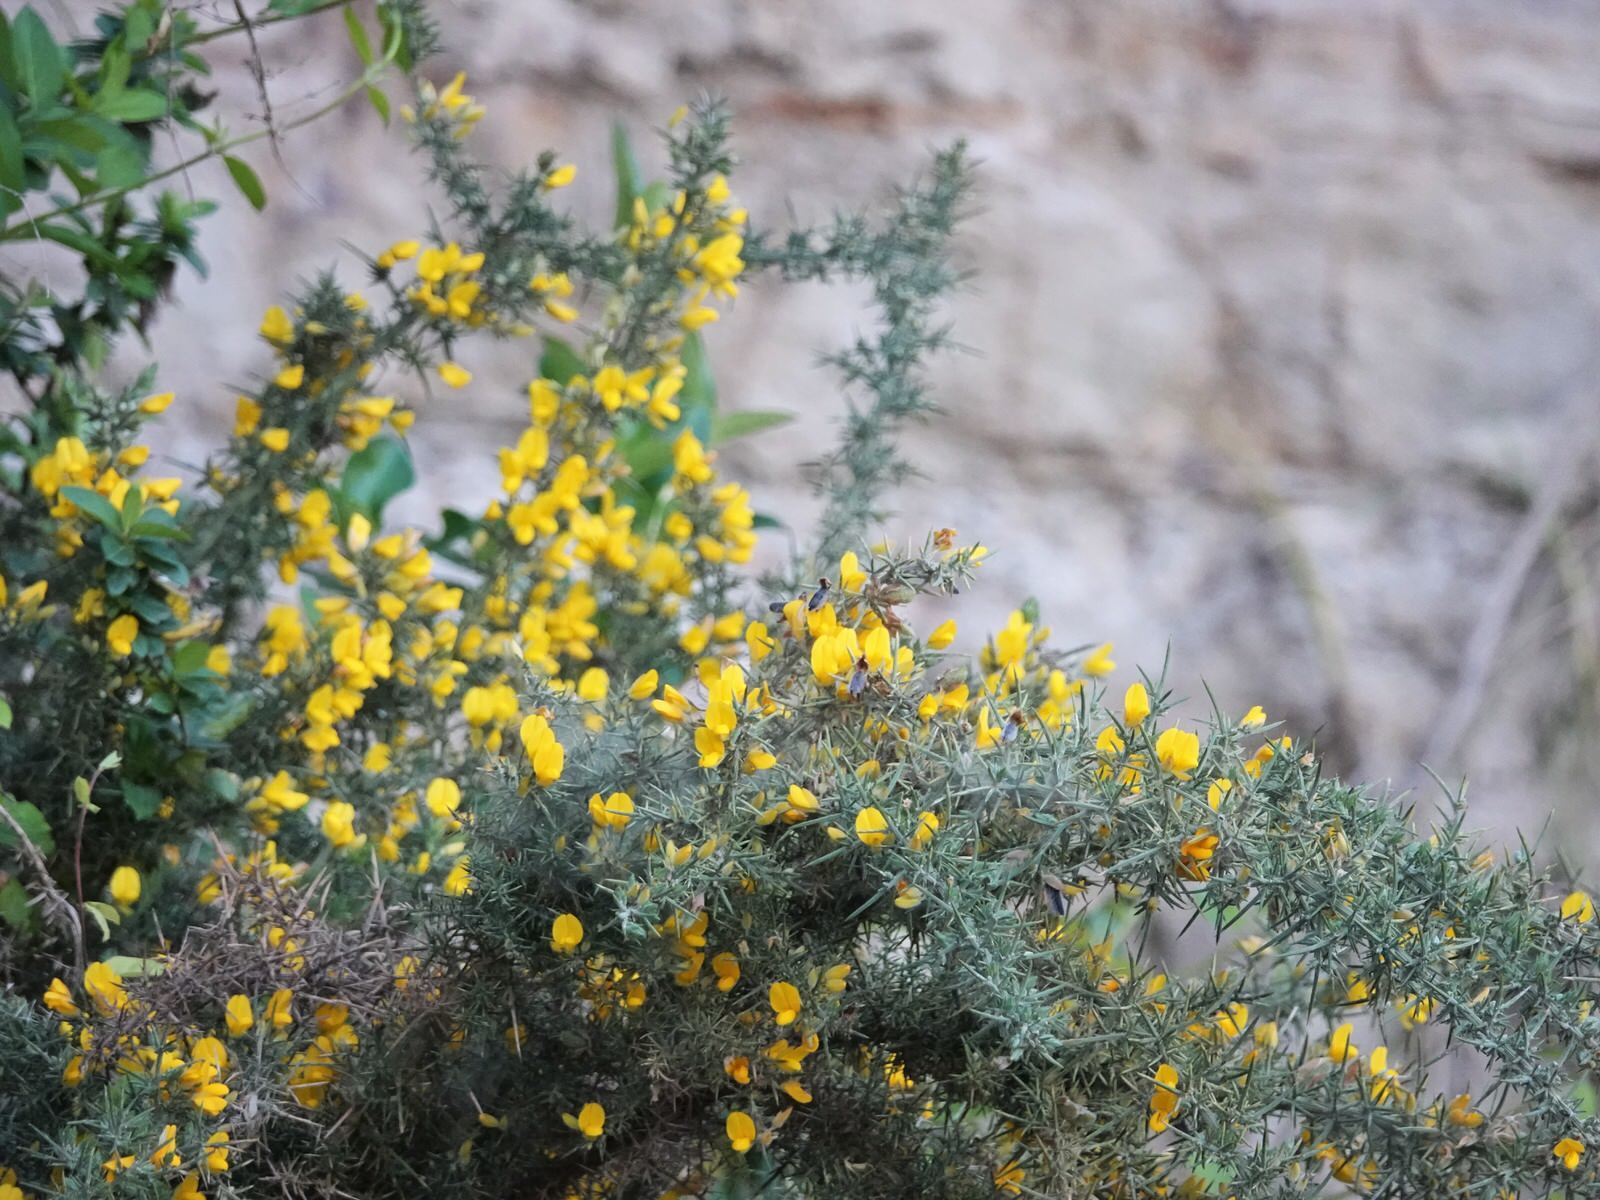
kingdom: Plantae
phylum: Tracheophyta
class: Magnoliopsida
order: Fabales
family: Fabaceae
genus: Ulex
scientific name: Ulex europaeus
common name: Common gorse
